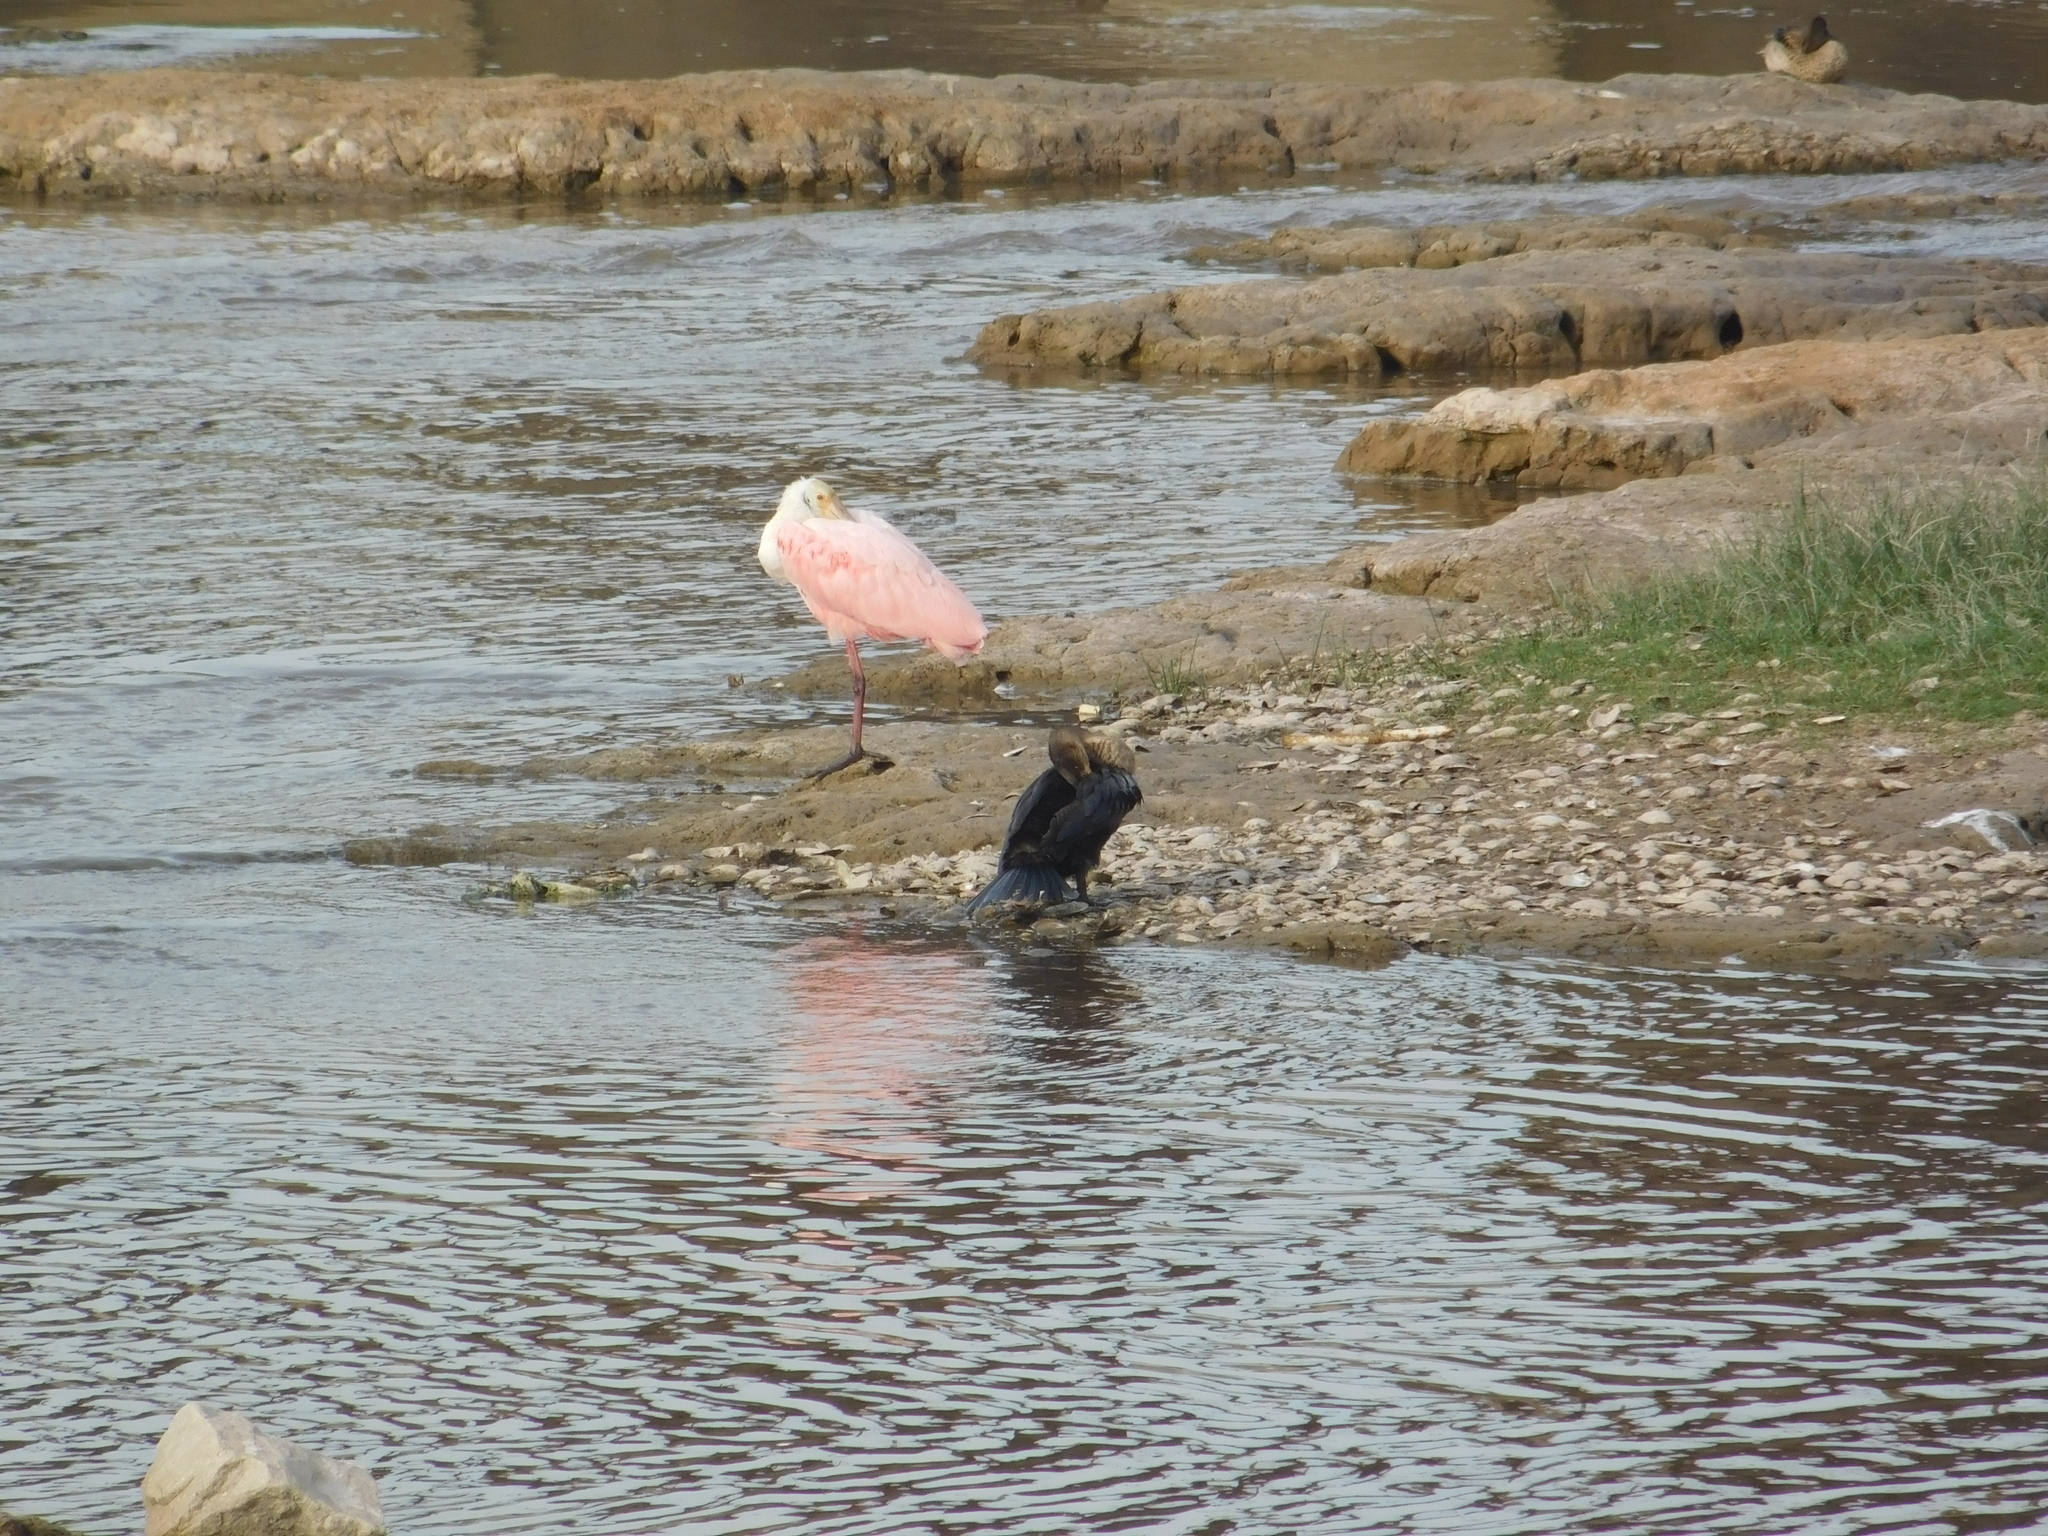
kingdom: Animalia
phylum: Chordata
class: Aves
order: Suliformes
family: Phalacrocoracidae
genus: Phalacrocorax
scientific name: Phalacrocorax brasilianus
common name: Neotropic cormorant
